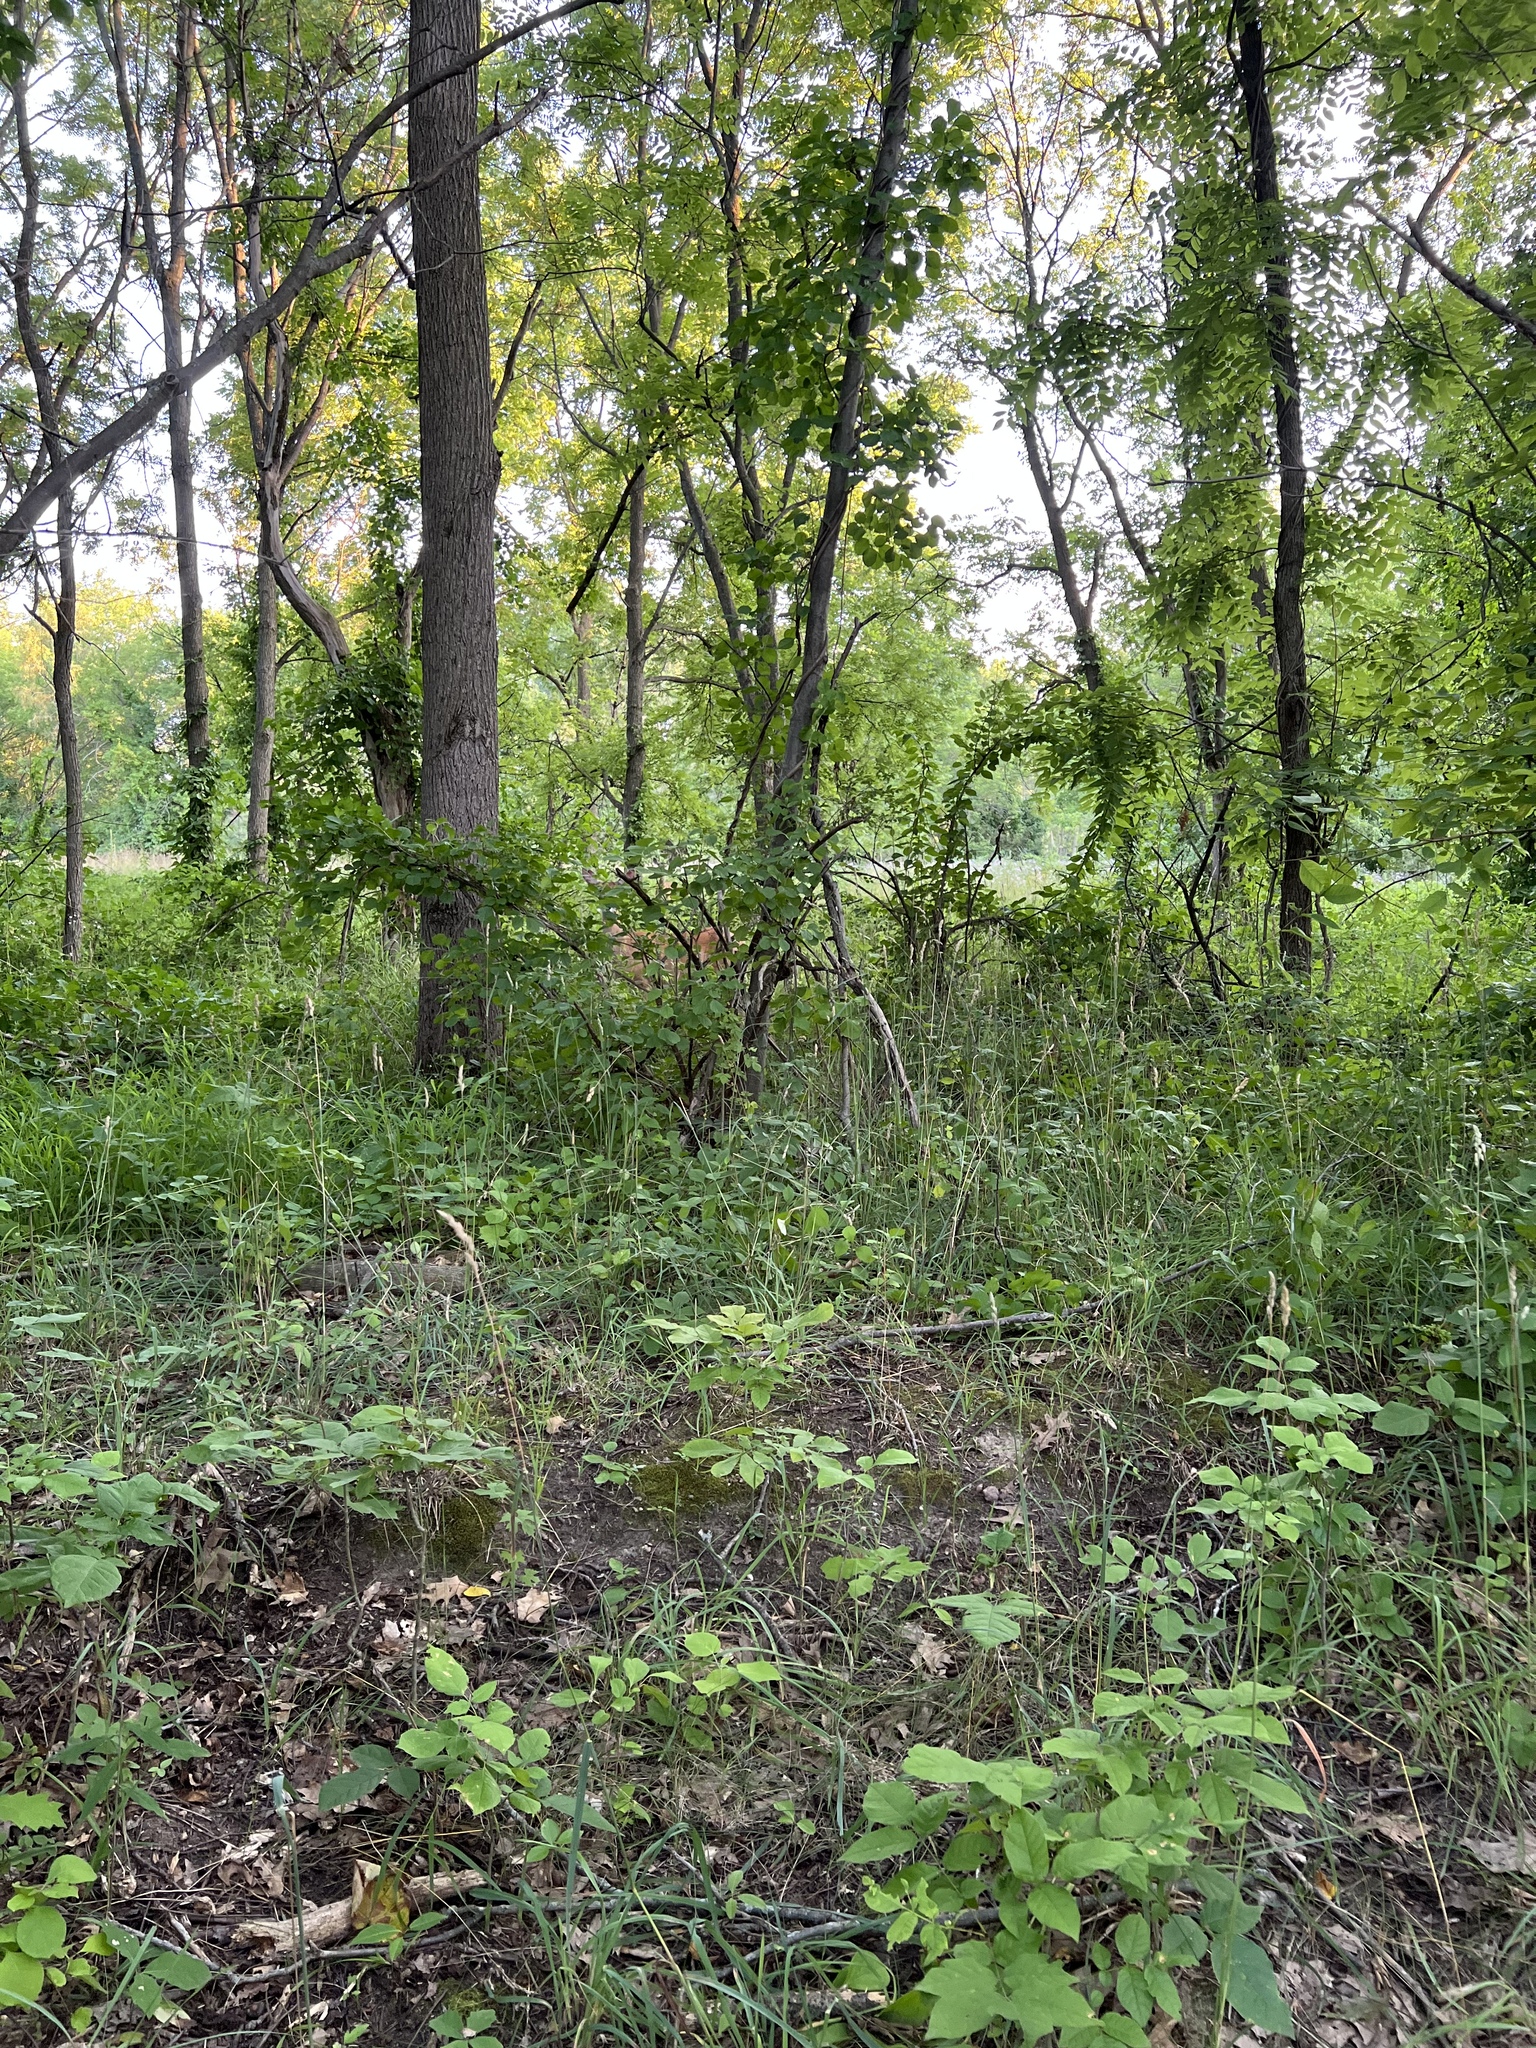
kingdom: Animalia
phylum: Chordata
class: Mammalia
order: Artiodactyla
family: Cervidae
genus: Odocoileus
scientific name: Odocoileus virginianus
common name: White-tailed deer
